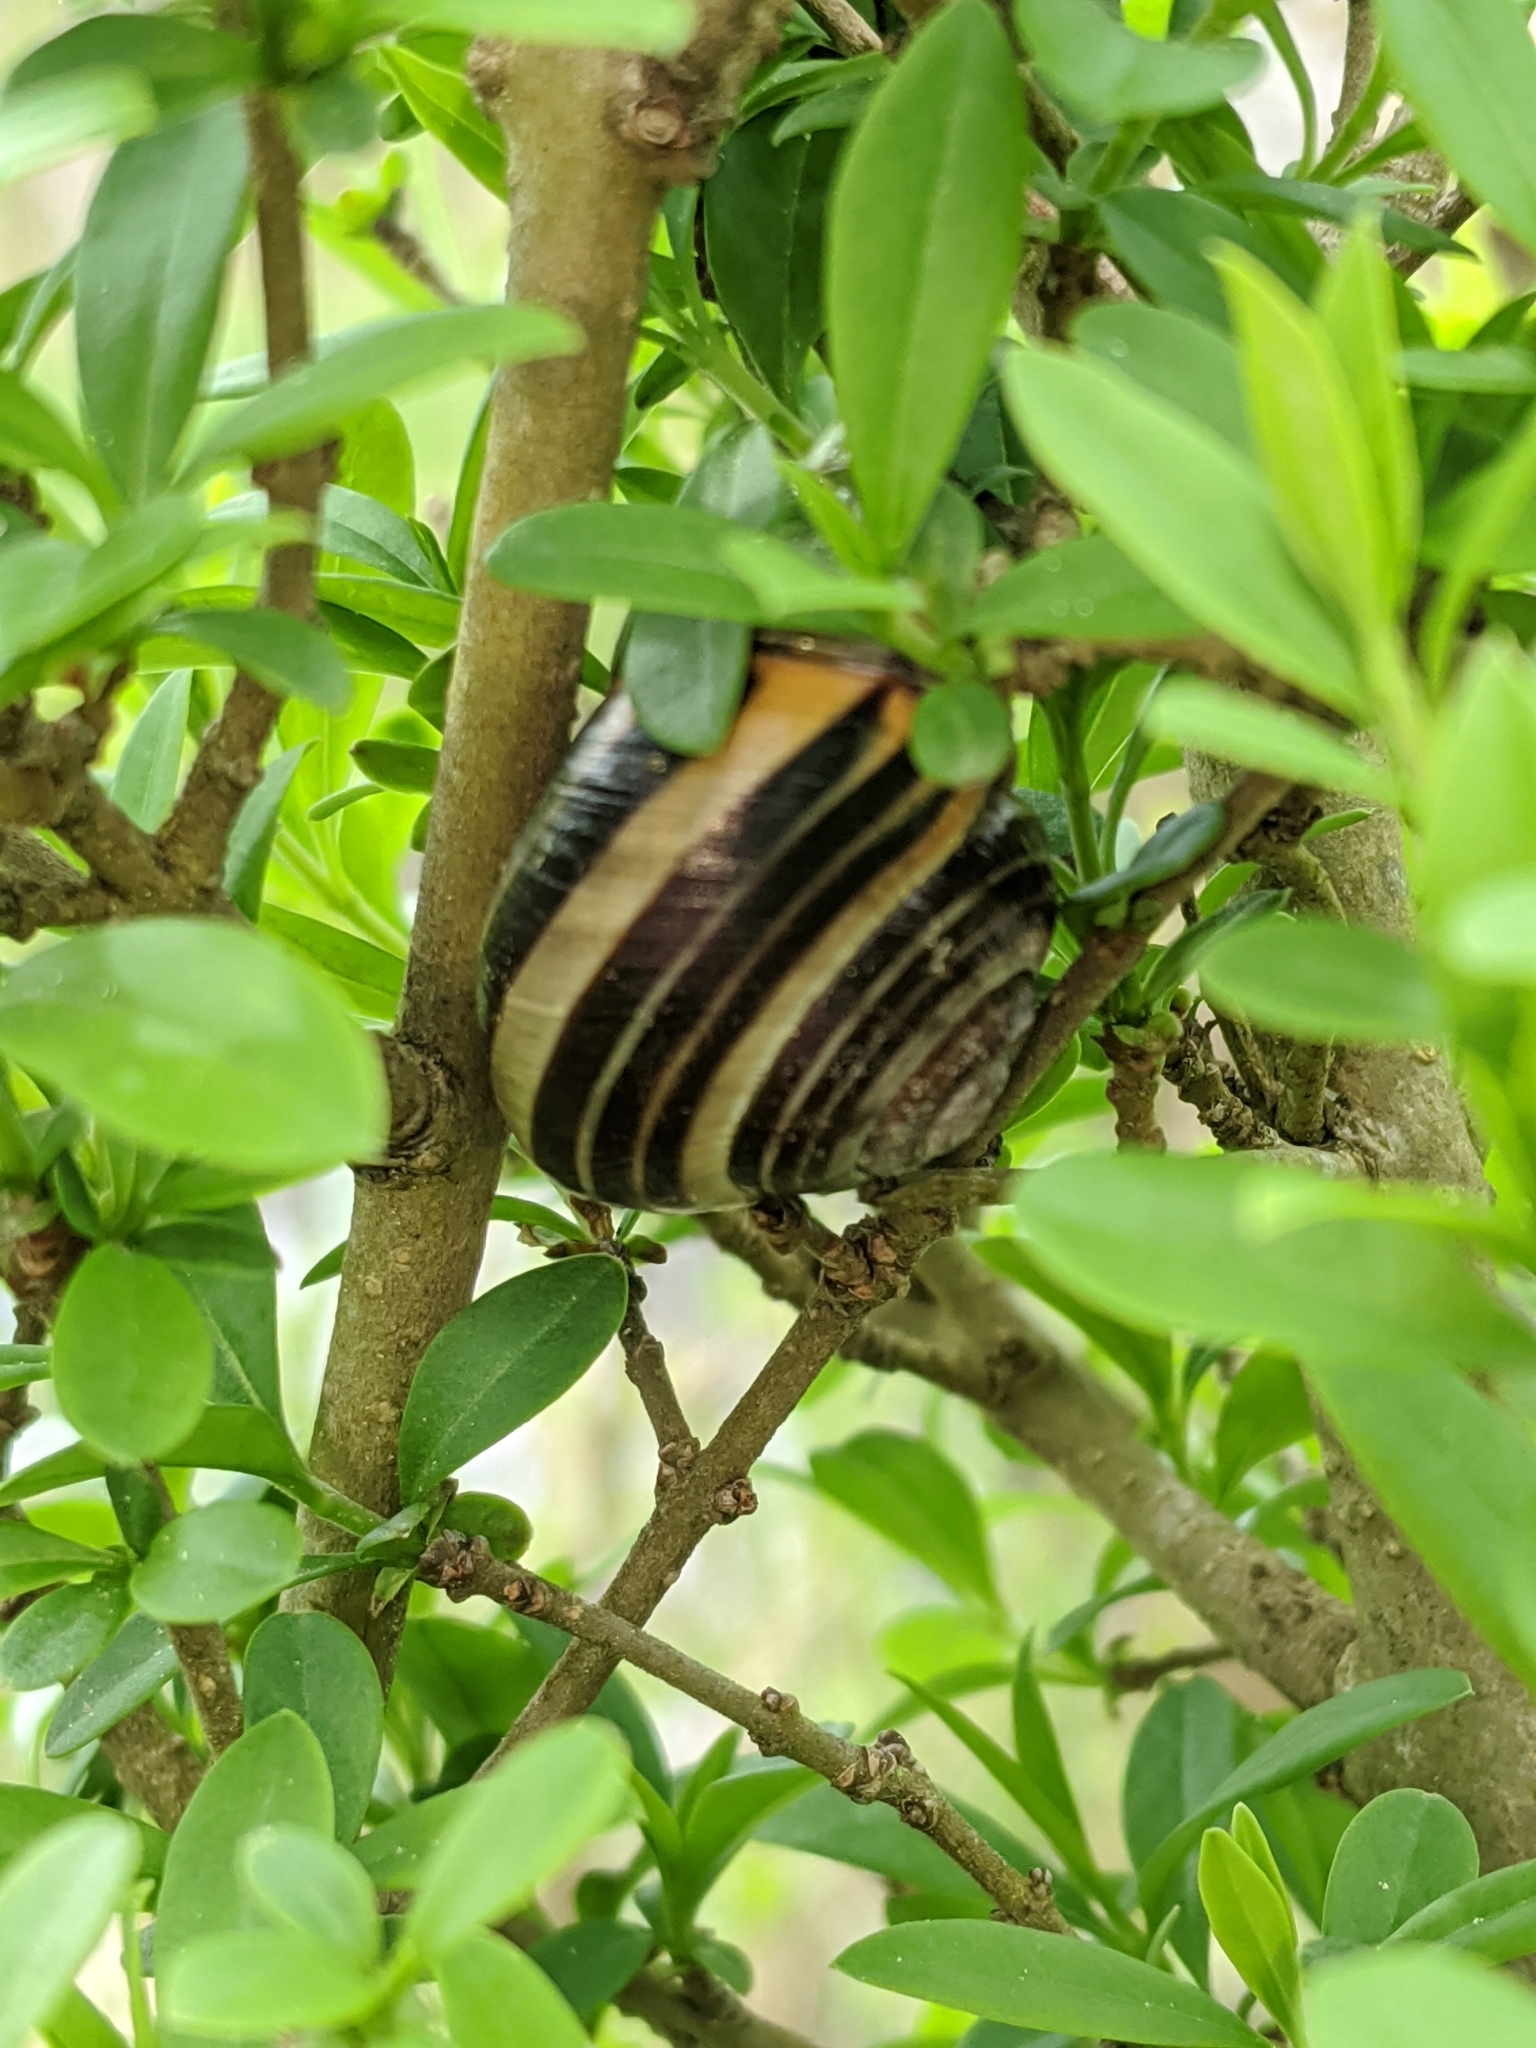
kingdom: Animalia
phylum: Mollusca
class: Gastropoda
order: Stylommatophora
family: Helicidae
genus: Cepaea
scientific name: Cepaea nemoralis
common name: Grovesnail
